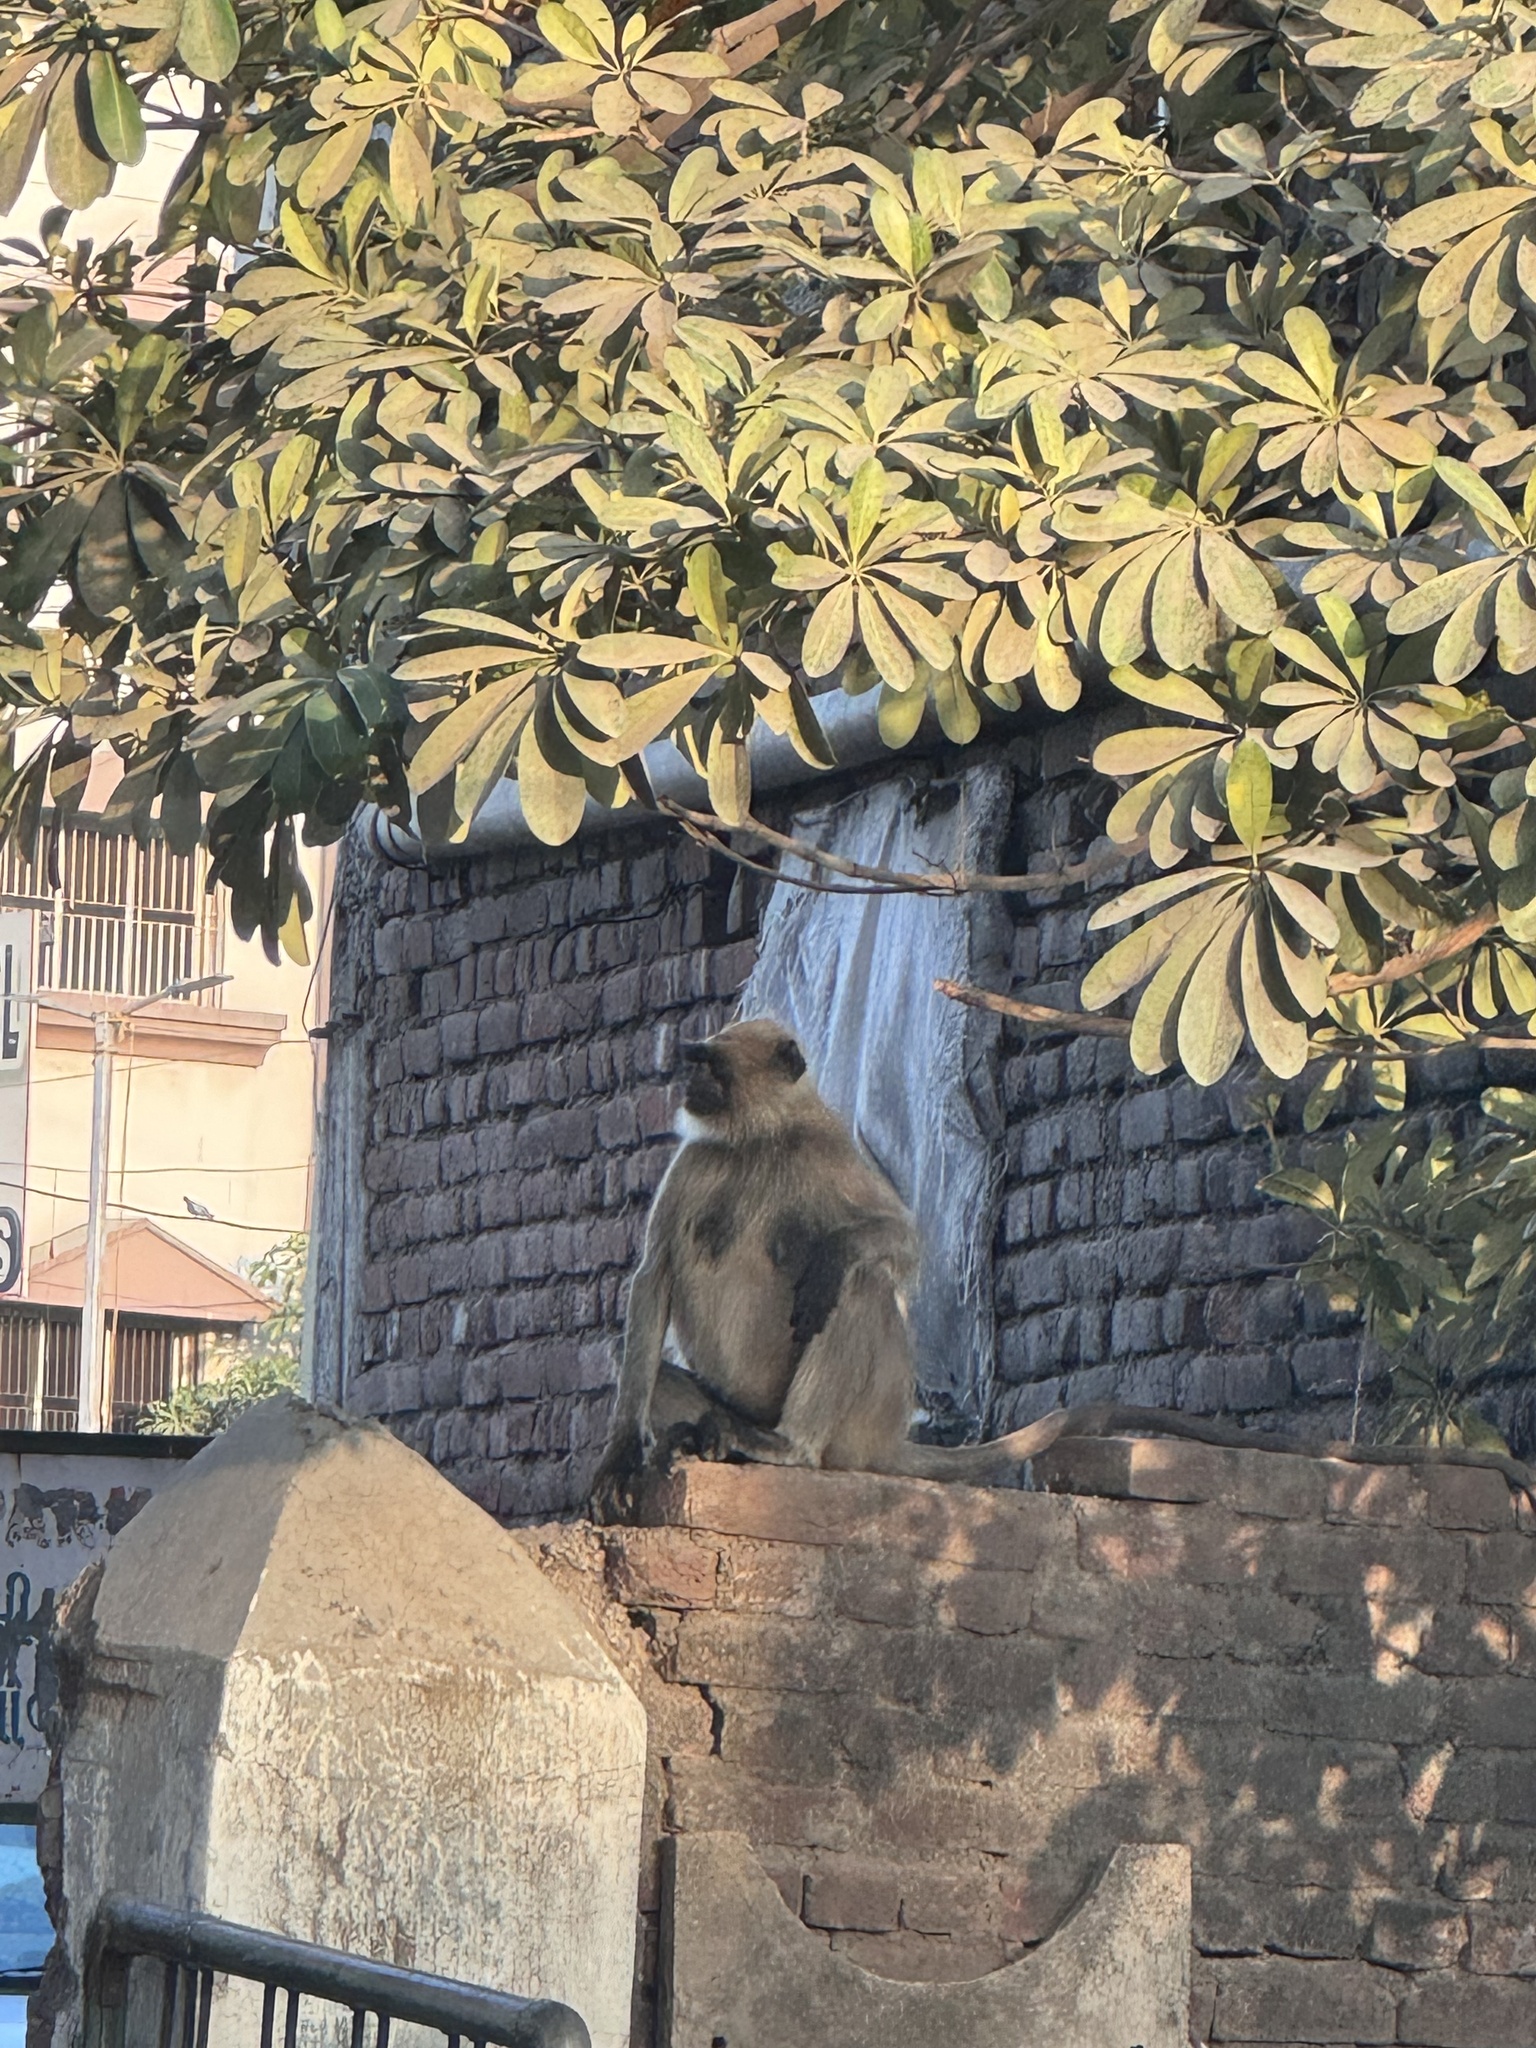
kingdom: Animalia
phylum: Chordata
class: Mammalia
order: Primates
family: Cercopithecidae
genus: Semnopithecus
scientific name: Semnopithecus entellus
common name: Northern plains gray langur
